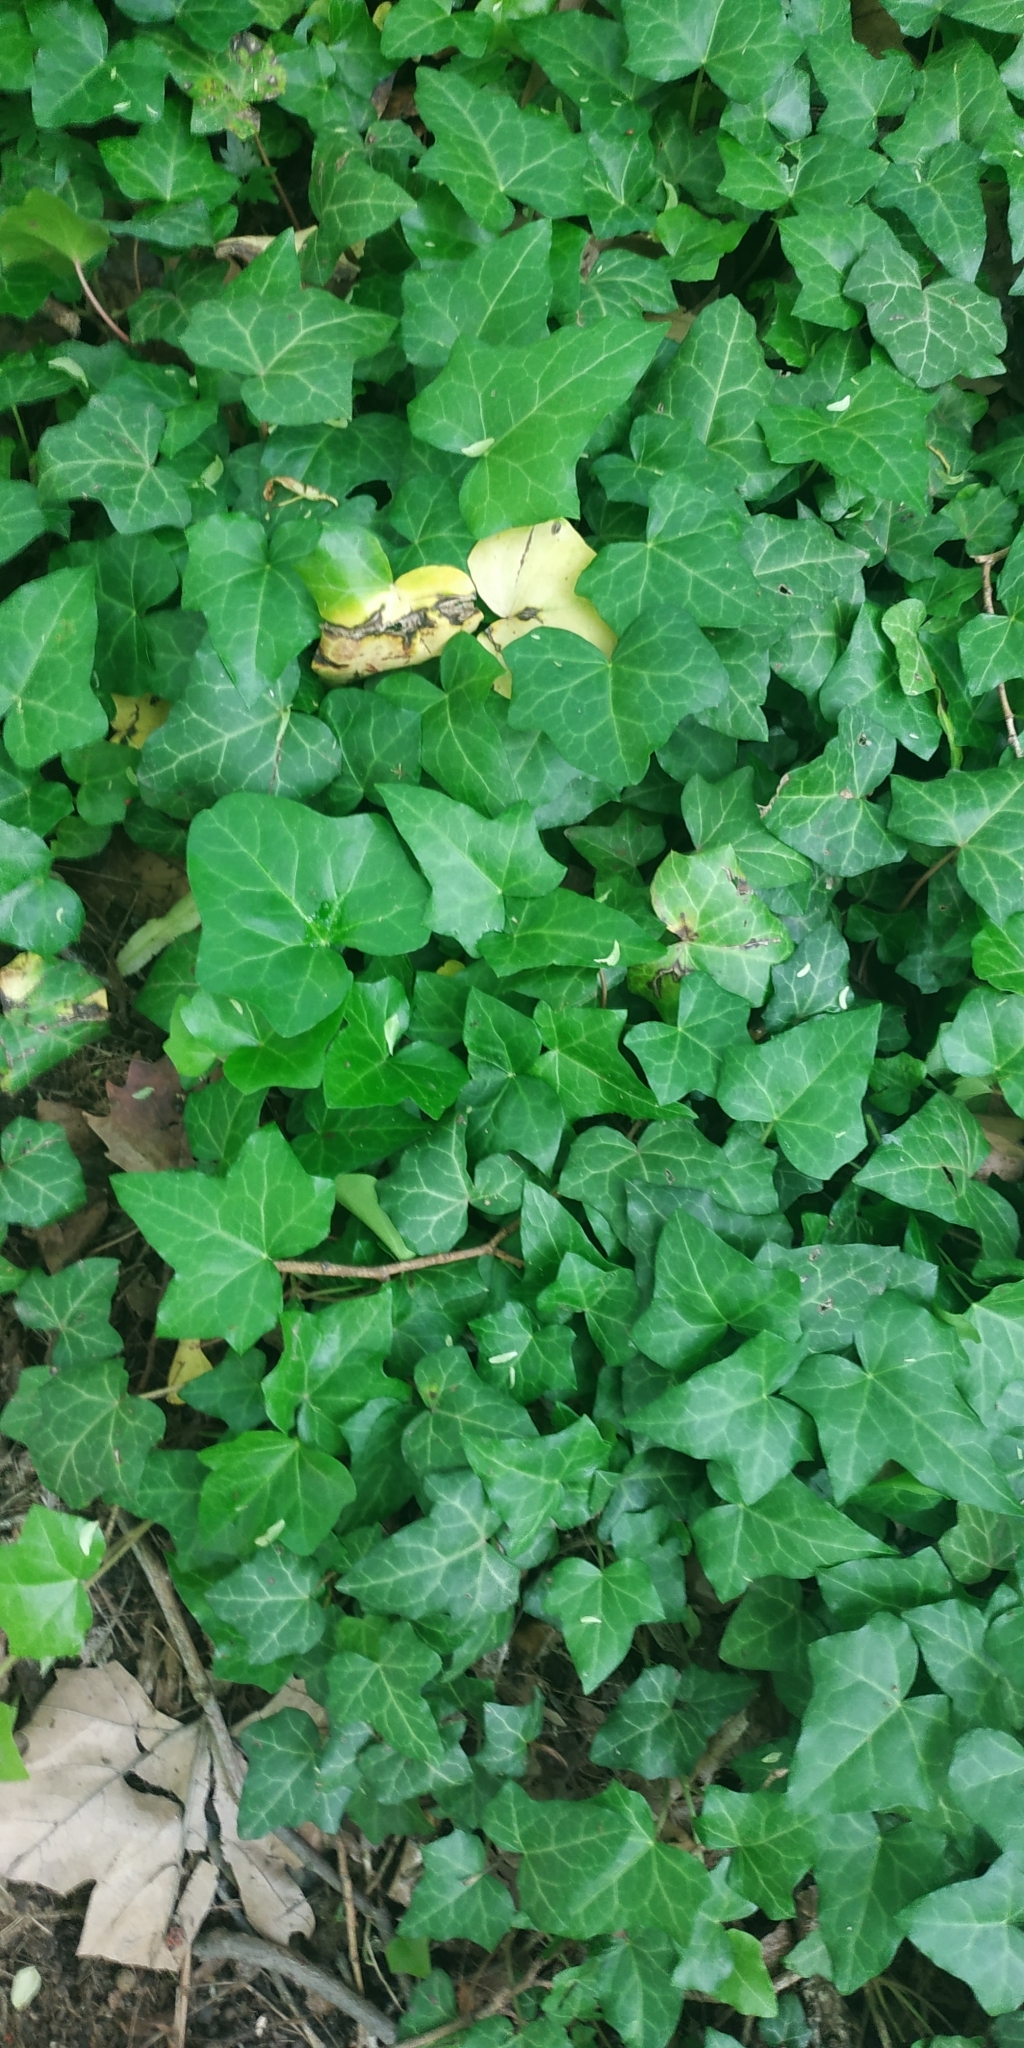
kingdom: Plantae
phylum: Tracheophyta
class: Magnoliopsida
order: Apiales
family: Araliaceae
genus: Hedera
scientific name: Hedera helix
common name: Ivy
